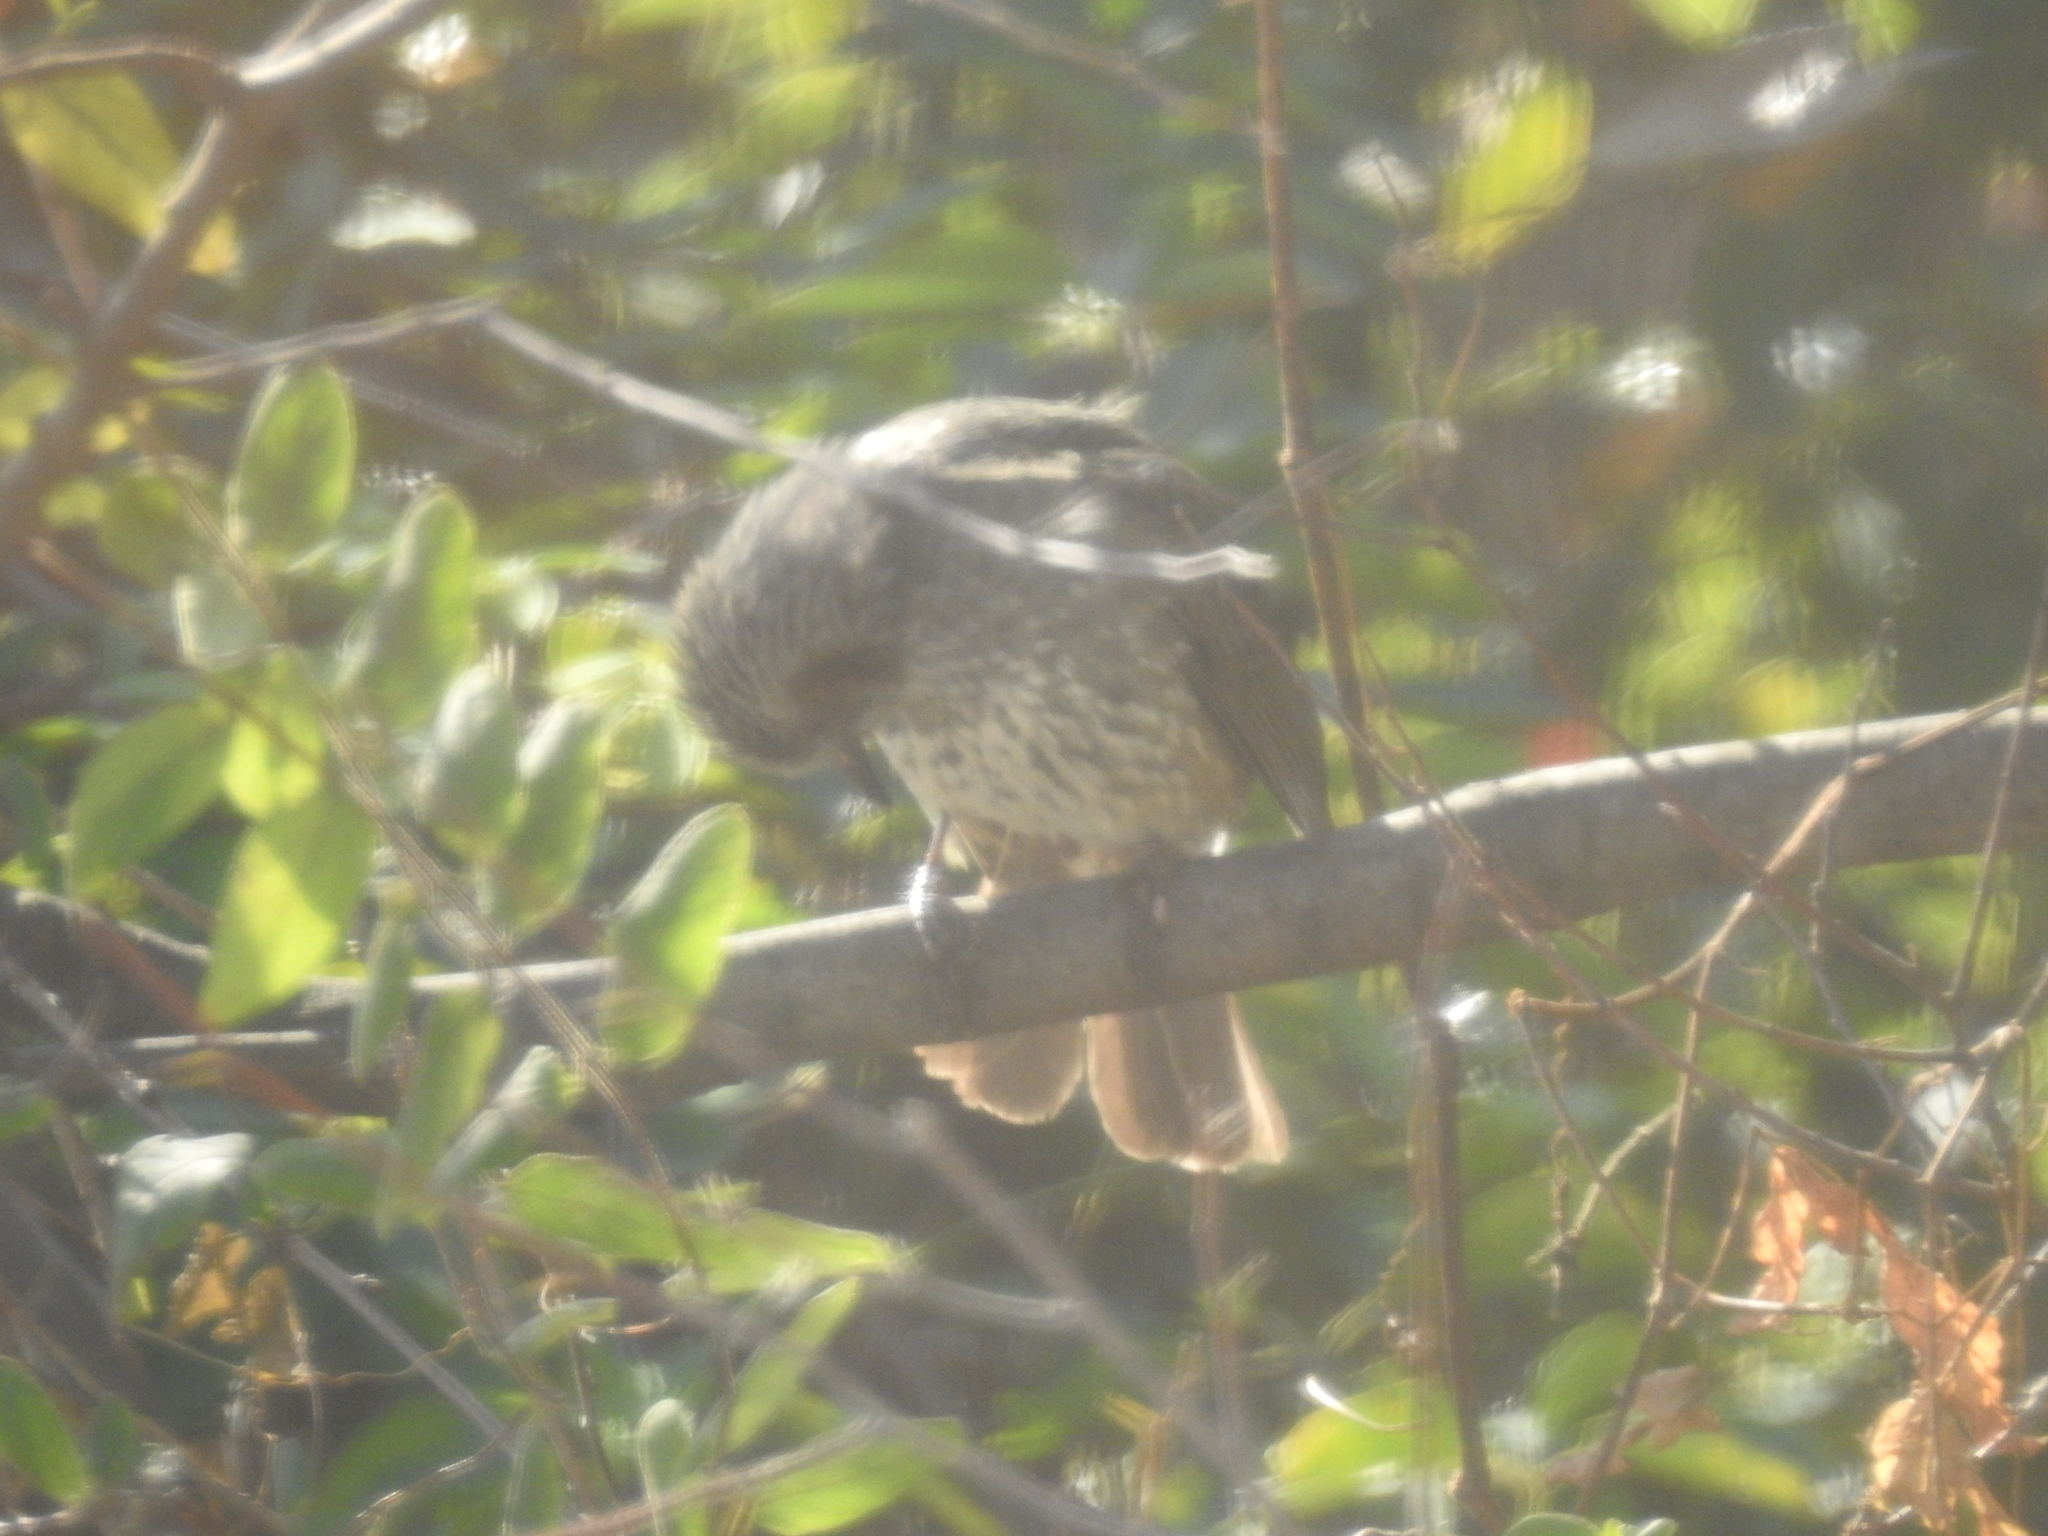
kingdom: Animalia
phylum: Chordata
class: Aves
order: Passeriformes
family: Pycnonotidae
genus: Hypsipetes
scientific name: Hypsipetes amaurotis
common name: Brown-eared bulbul
